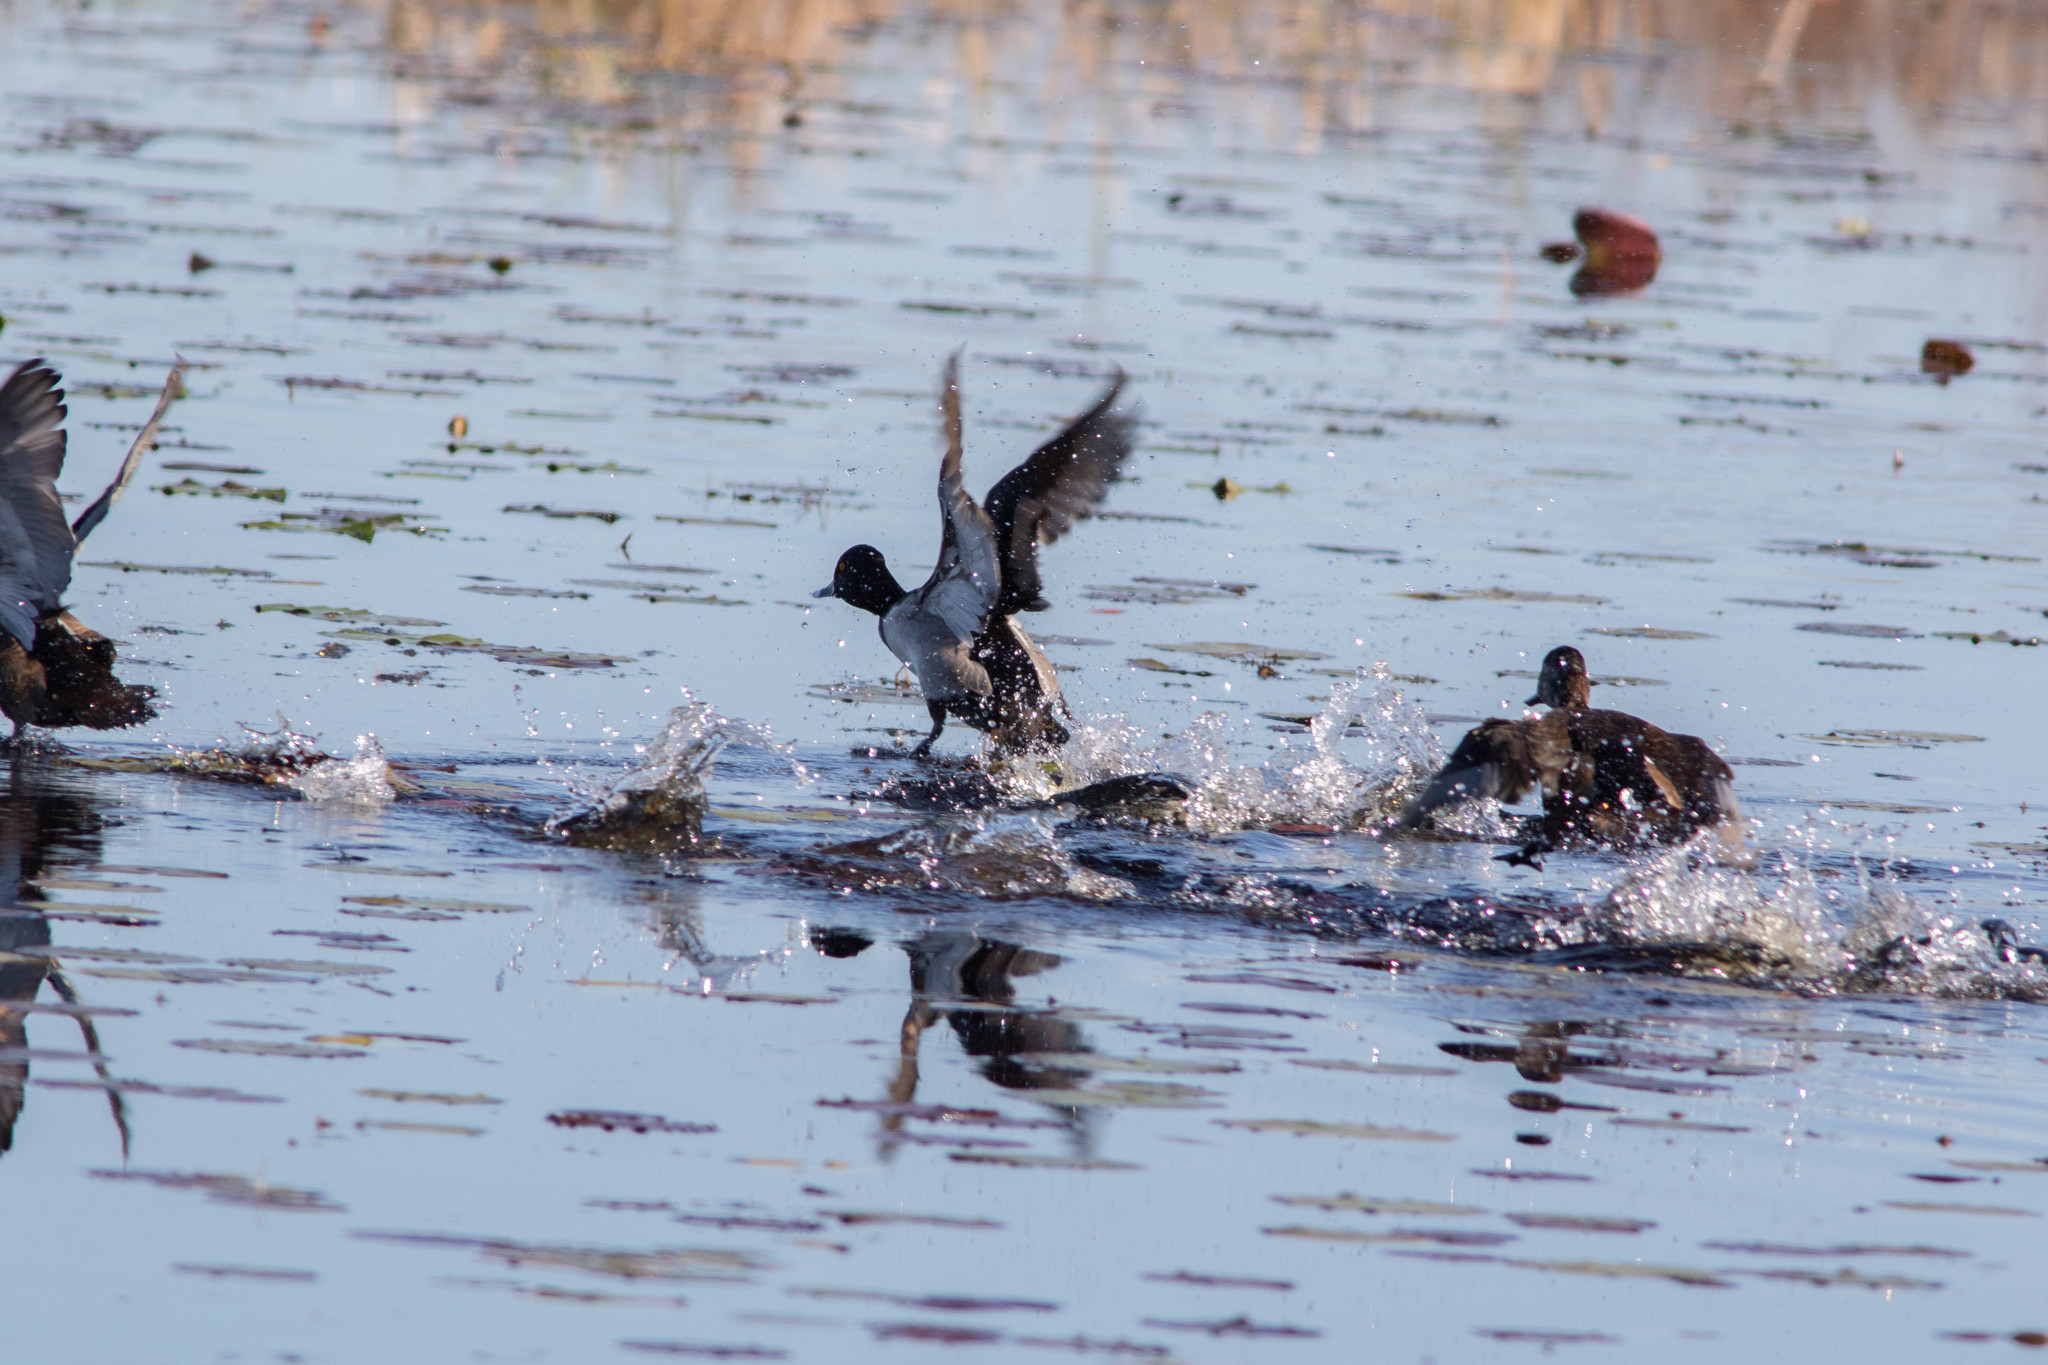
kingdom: Animalia
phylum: Chordata
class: Aves
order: Anseriformes
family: Anatidae
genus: Aythya
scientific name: Aythya collaris
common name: Ring-necked duck
